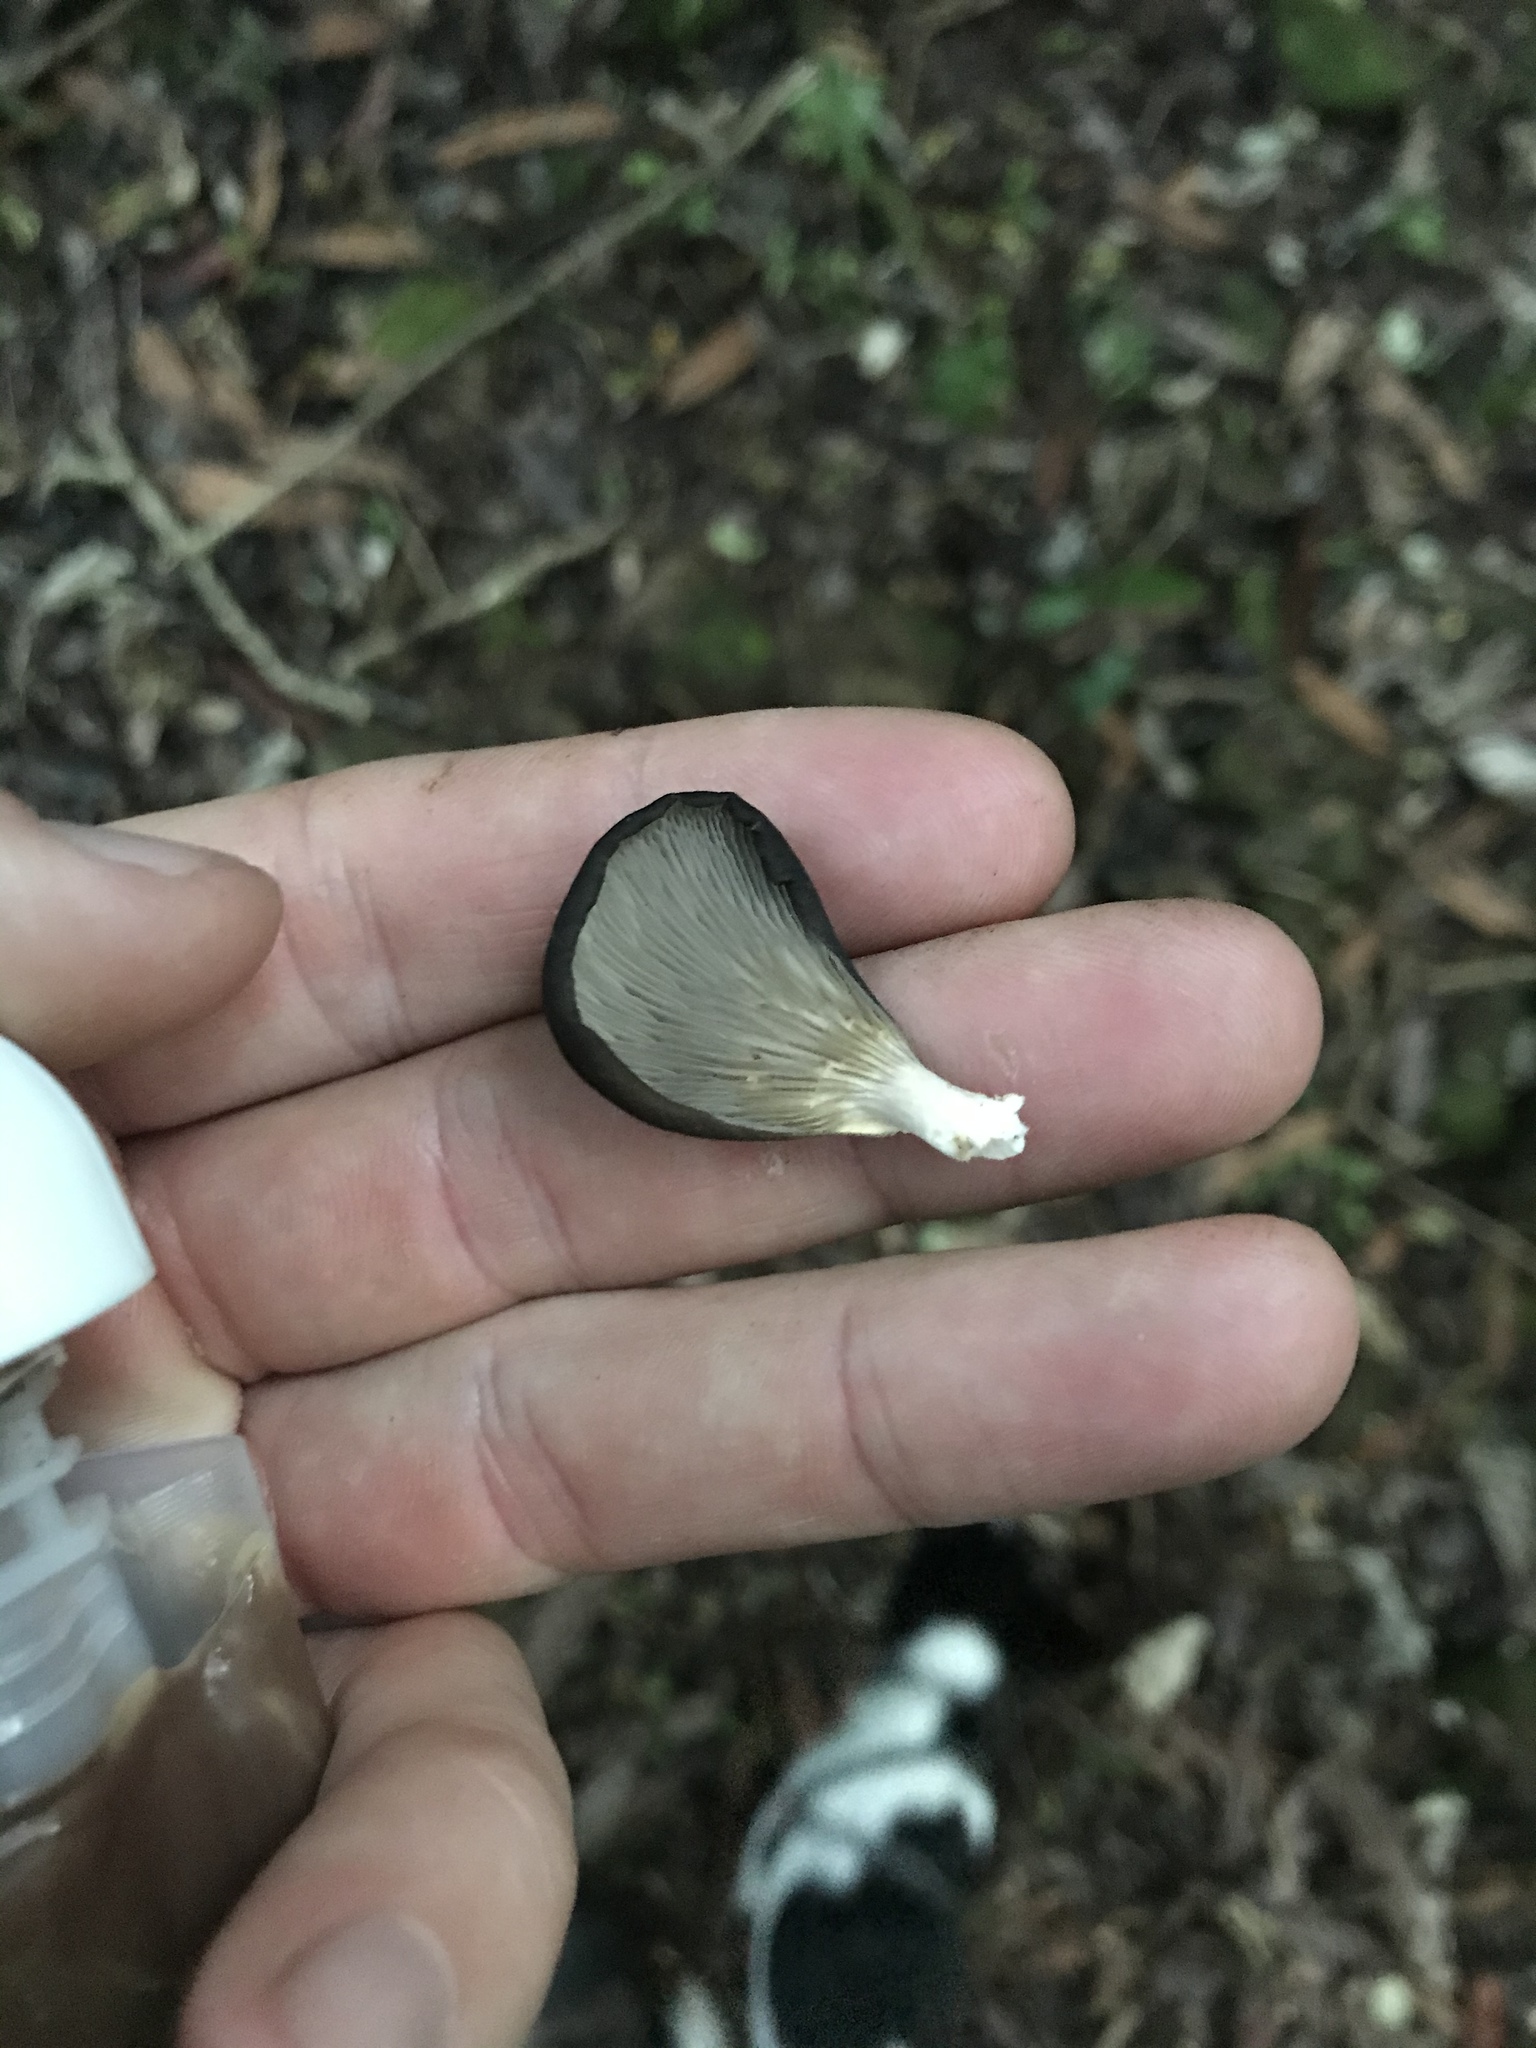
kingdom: Fungi
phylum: Basidiomycota
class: Agaricomycetes
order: Agaricales
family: Pleurotaceae
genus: Pleurotus
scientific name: Pleurotus purpureo-olivaceus
